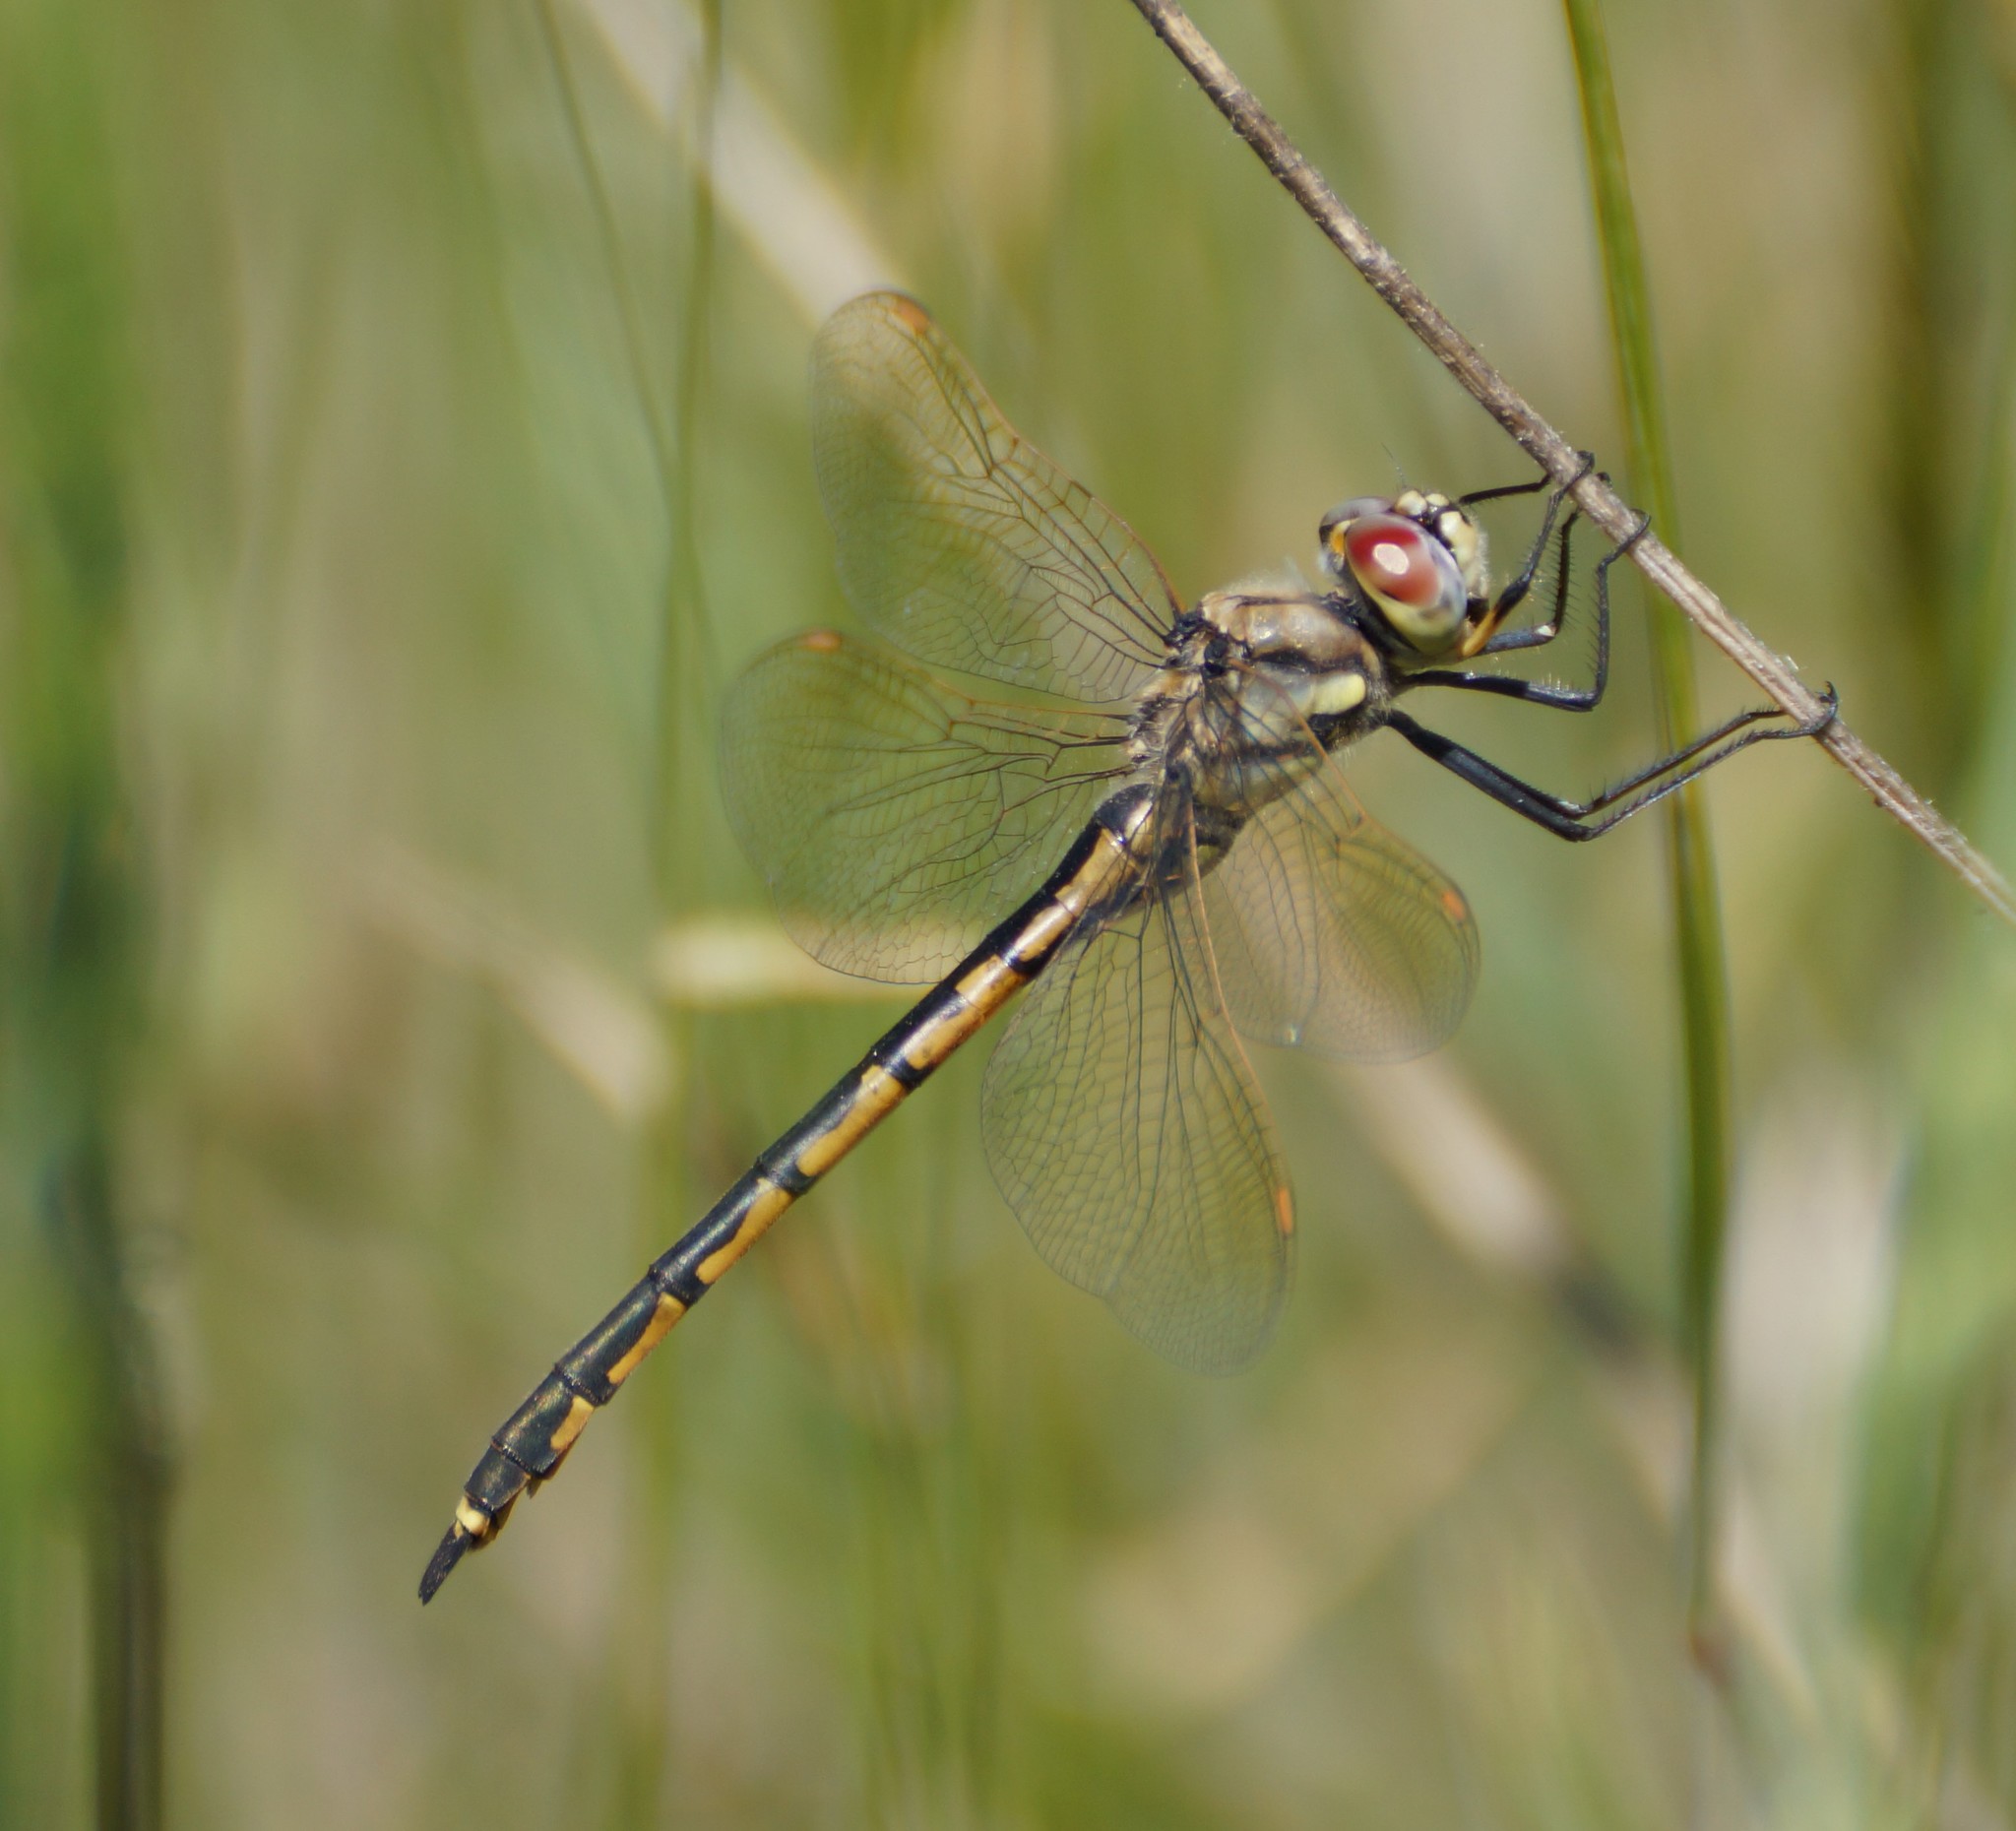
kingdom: Animalia
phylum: Arthropoda
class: Insecta
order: Odonata
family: Corduliidae
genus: Hemicordulia
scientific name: Hemicordulia tau
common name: Tau emerald
